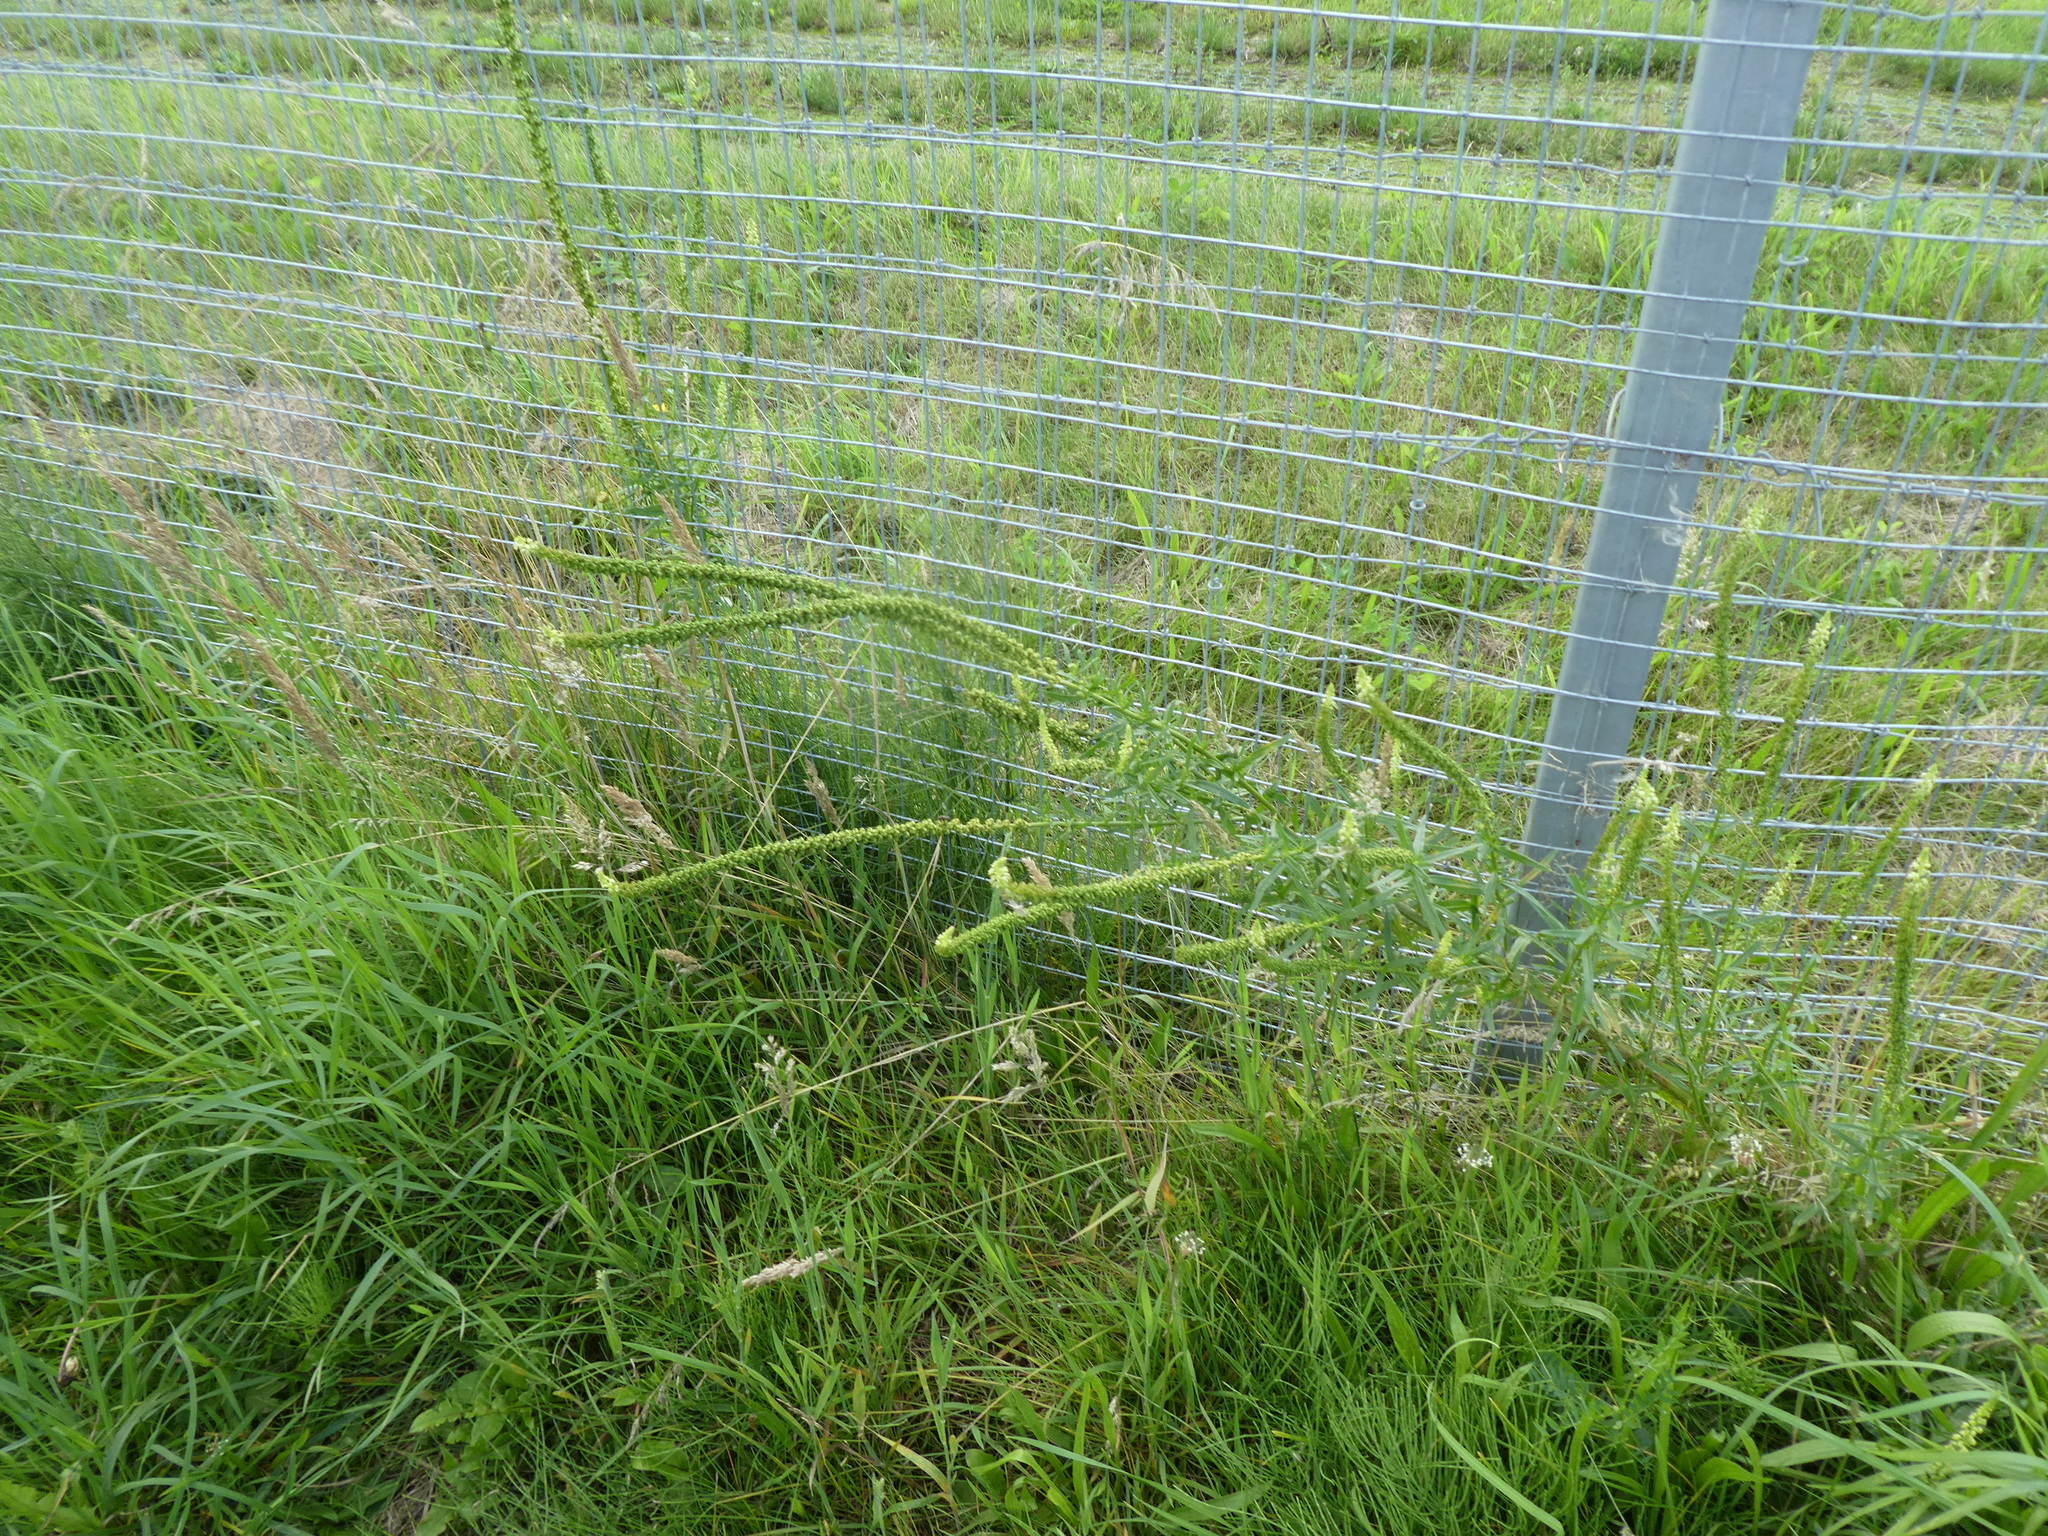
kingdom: Plantae
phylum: Tracheophyta
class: Magnoliopsida
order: Brassicales
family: Resedaceae
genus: Reseda
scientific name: Reseda luteola
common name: Weld
